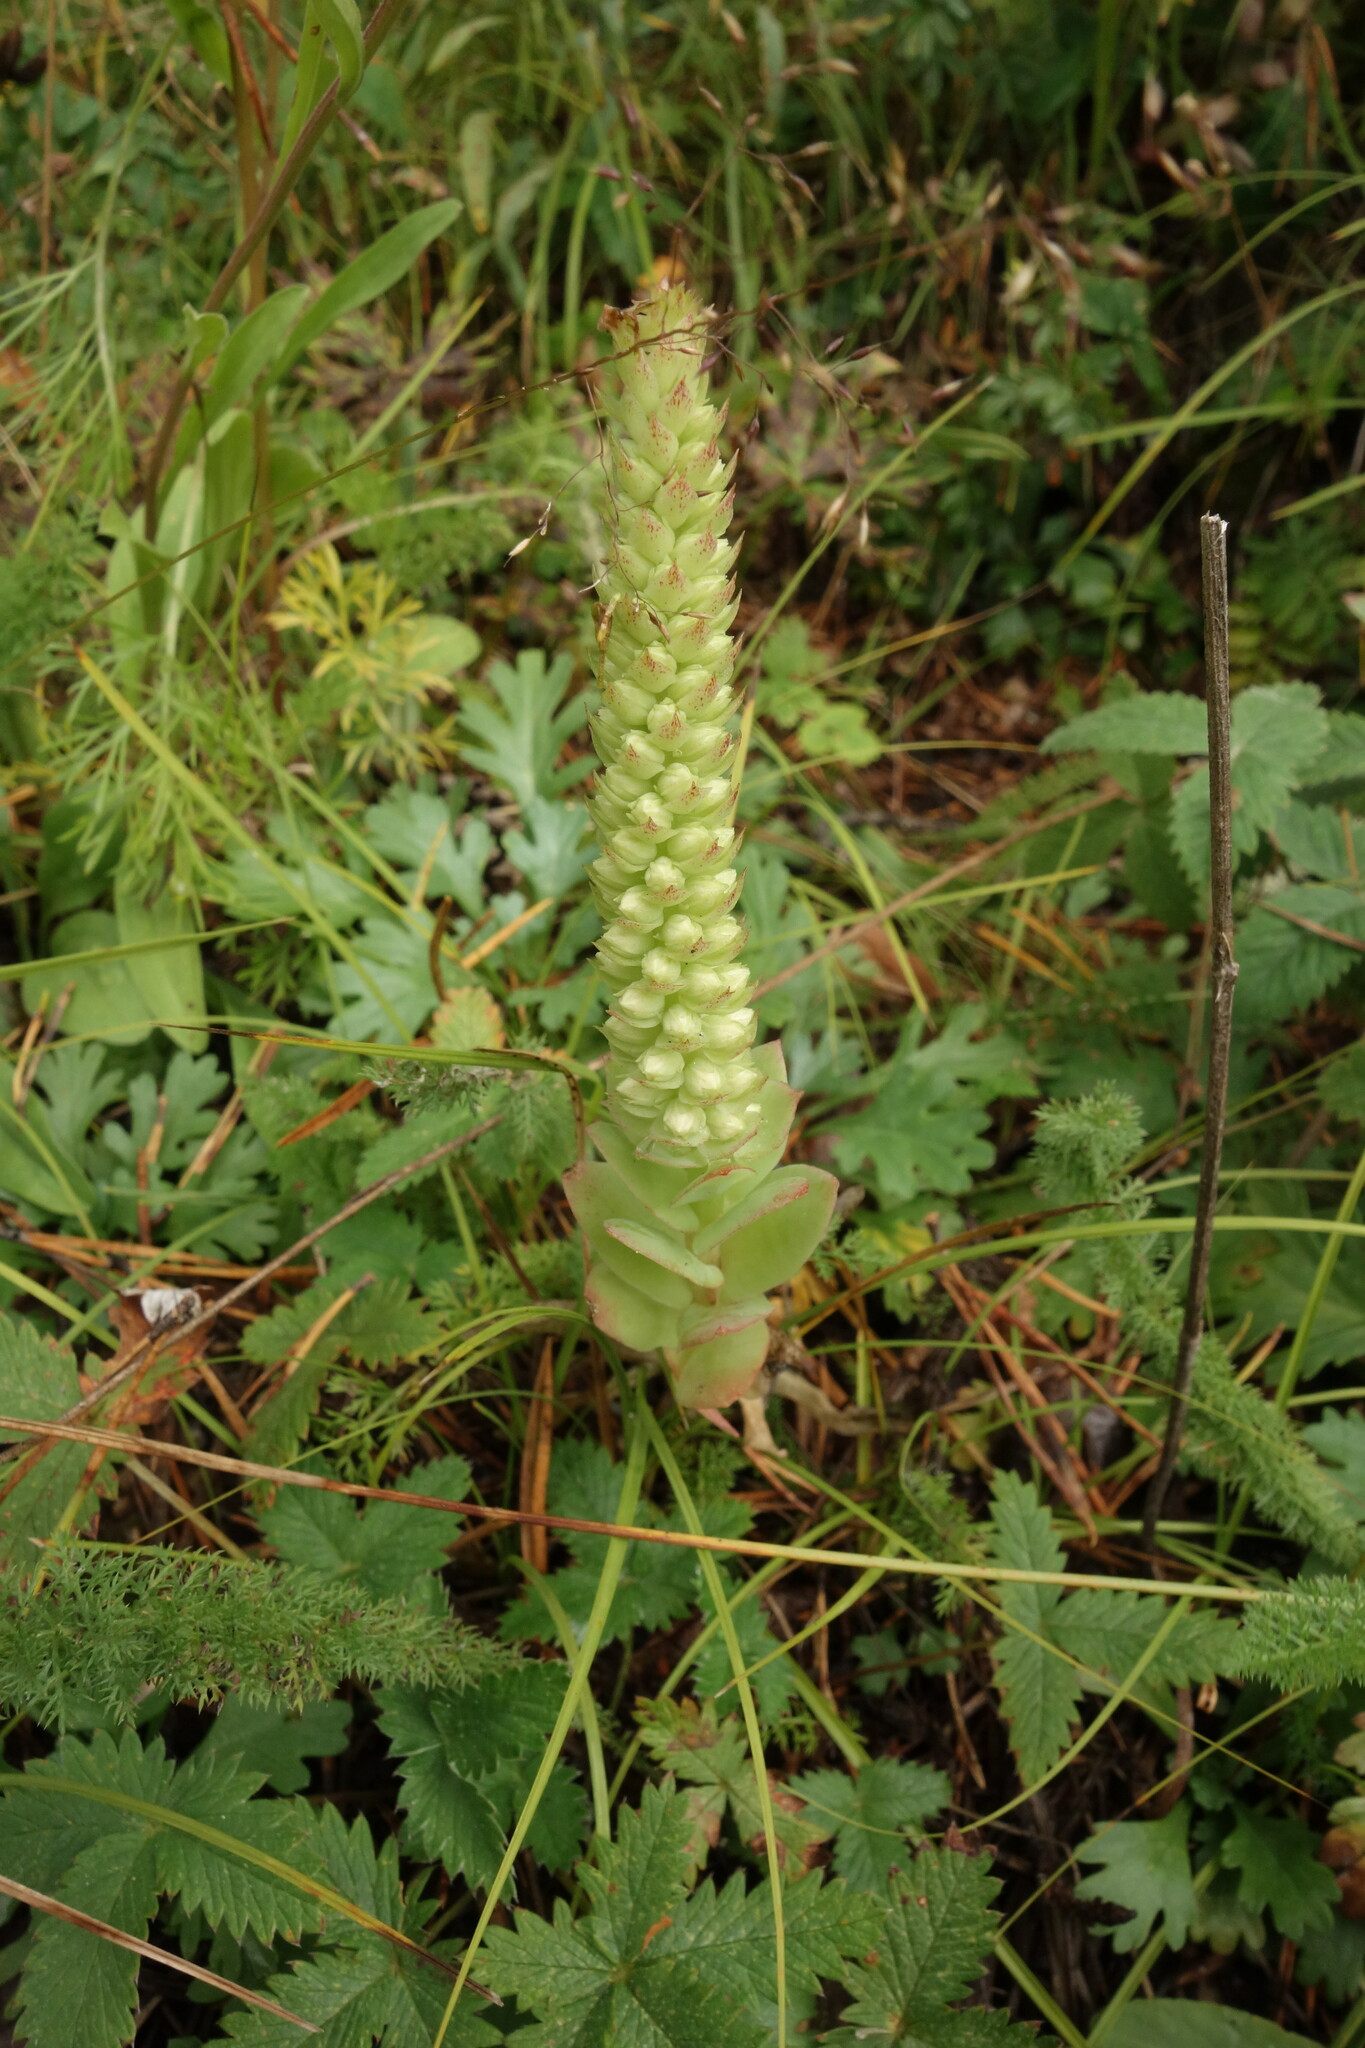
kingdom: Plantae
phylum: Tracheophyta
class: Magnoliopsida
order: Saxifragales
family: Crassulaceae
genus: Orostachys
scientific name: Orostachys malacophylla
